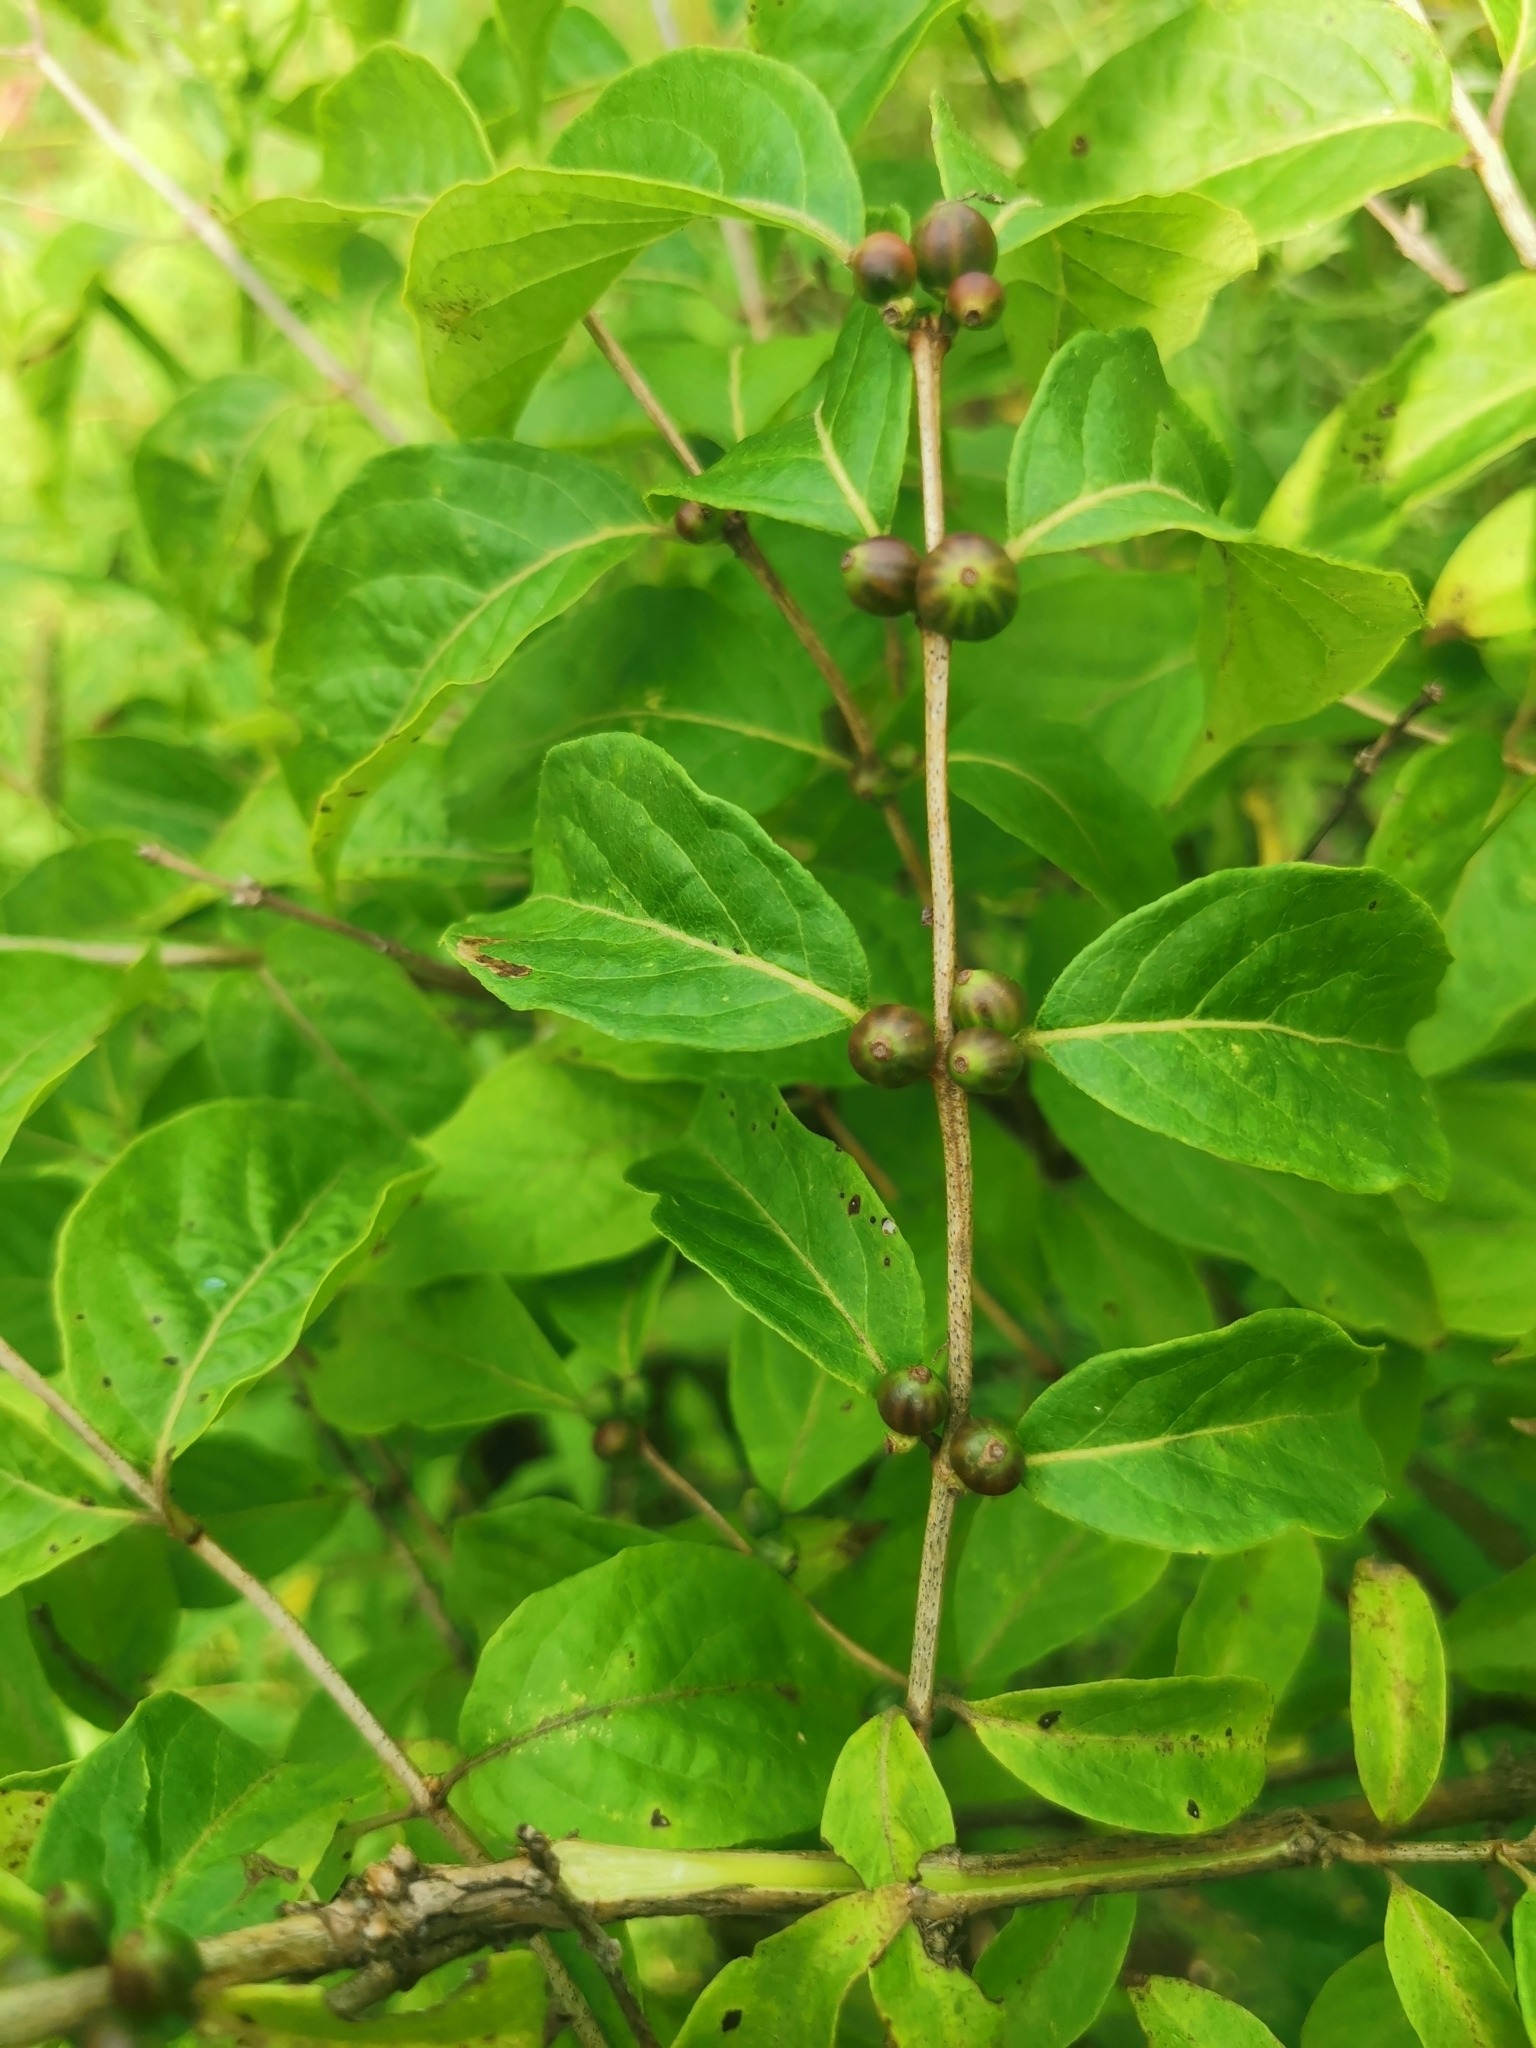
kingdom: Plantae
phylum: Tracheophyta
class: Magnoliopsida
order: Dipsacales
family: Caprifoliaceae
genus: Lonicera
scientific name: Lonicera maackii
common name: Amur honeysuckle
